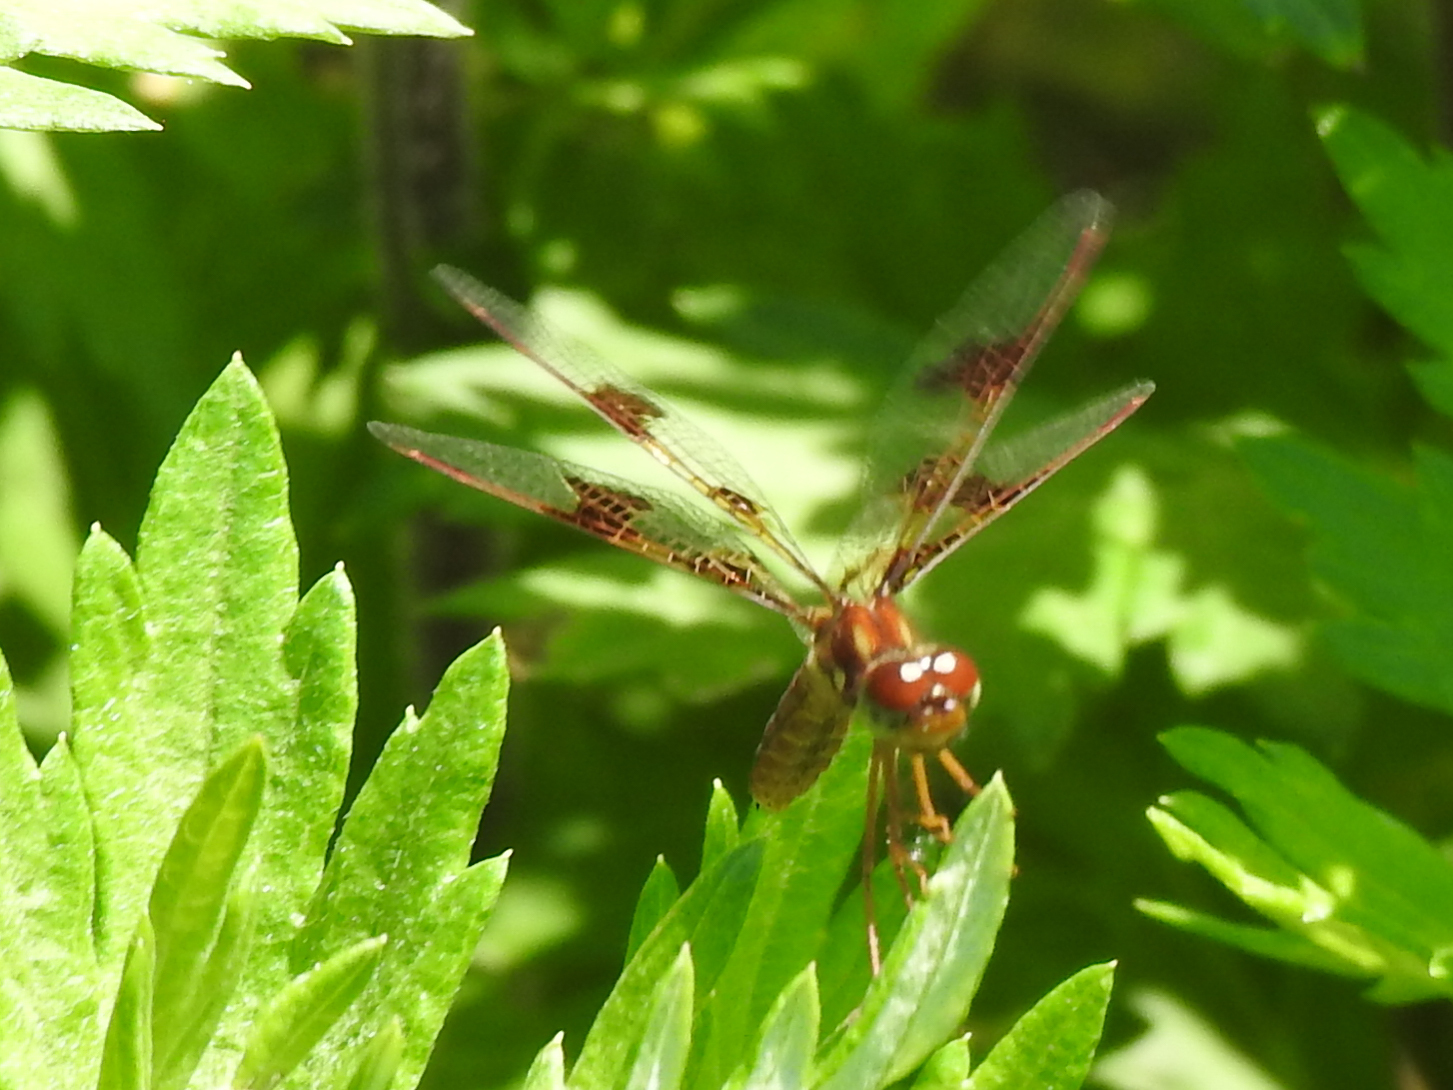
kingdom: Animalia
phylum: Arthropoda
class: Insecta
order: Odonata
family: Libellulidae
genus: Perithemis
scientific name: Perithemis tenera
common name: Eastern amberwing
